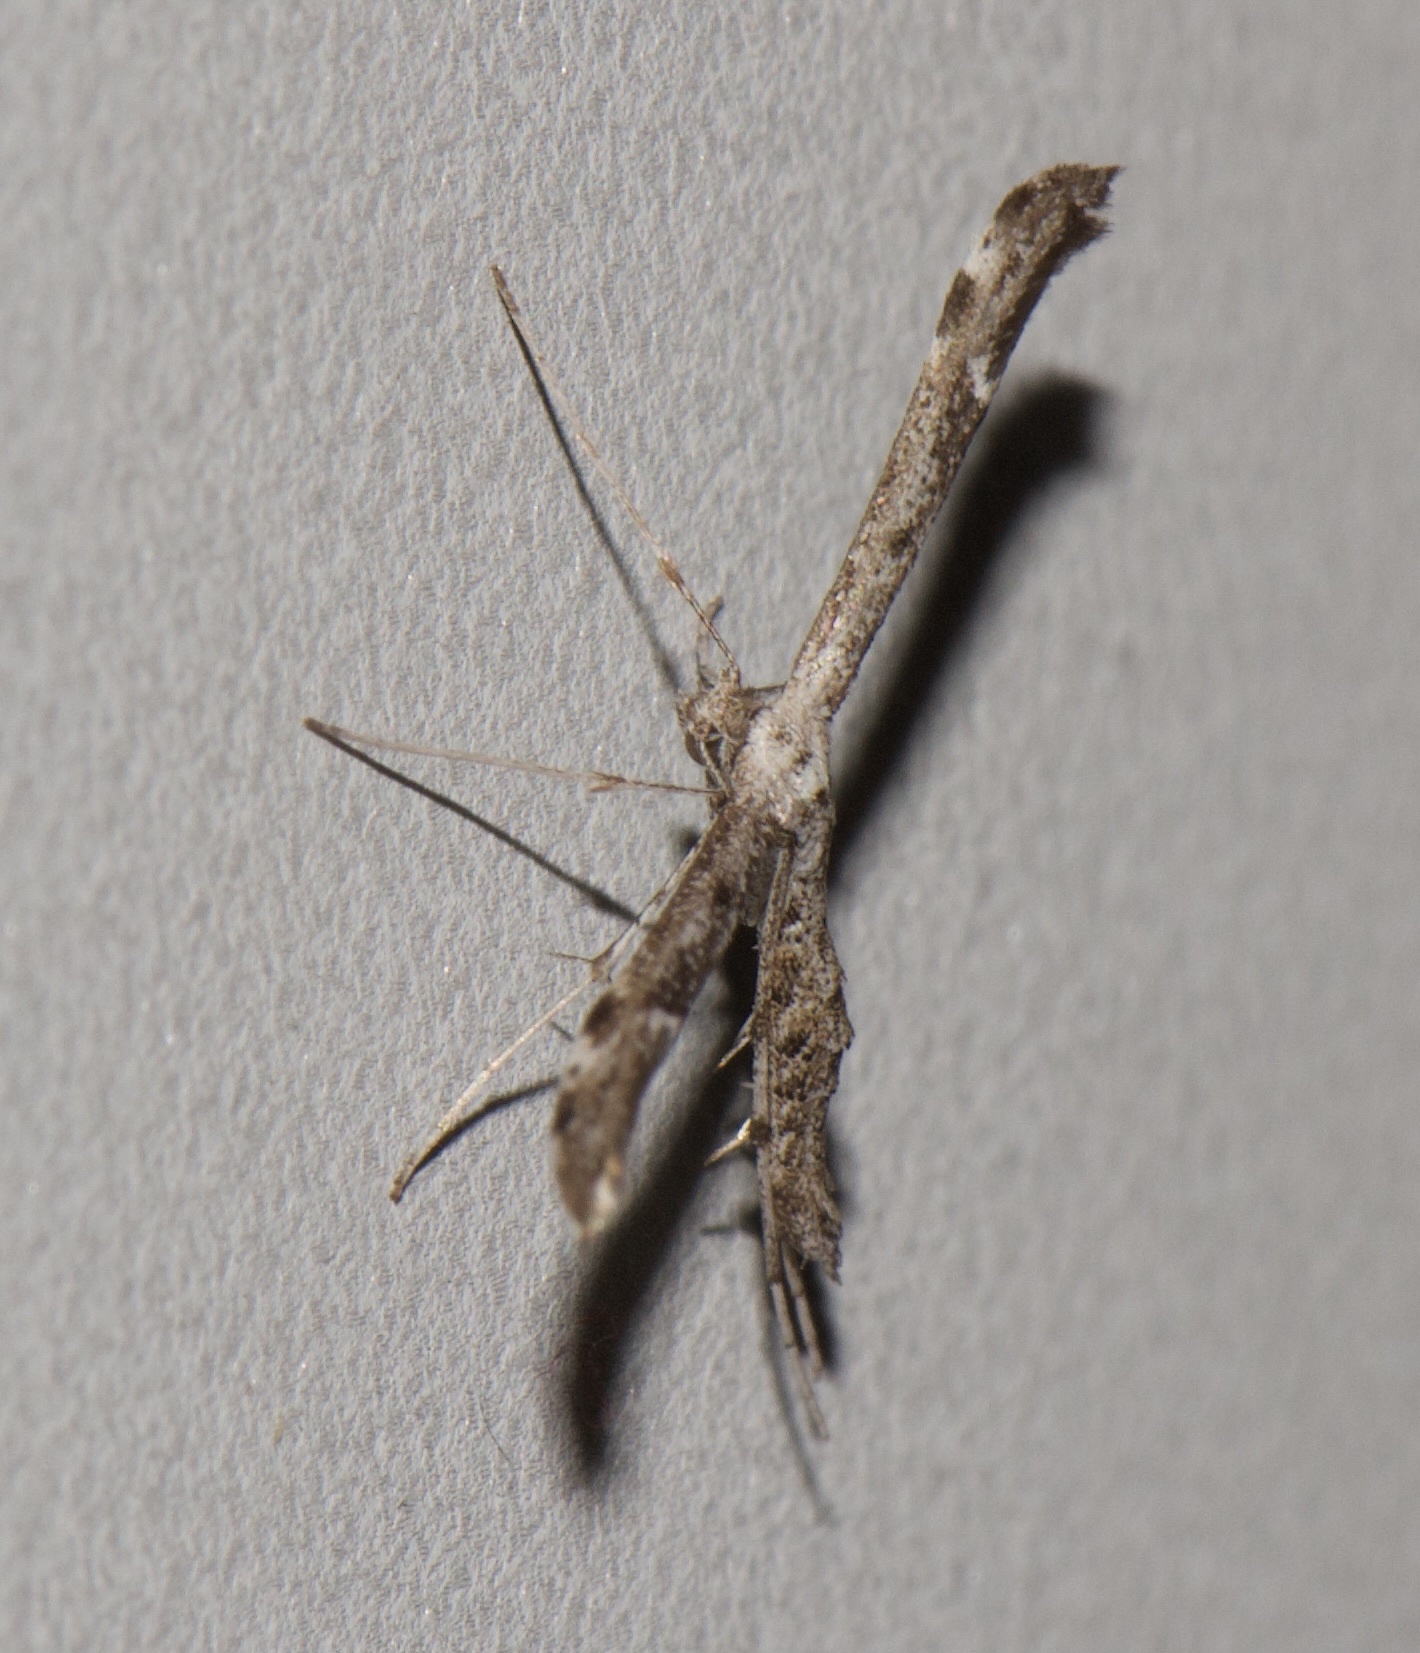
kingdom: Animalia
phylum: Arthropoda
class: Insecta
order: Lepidoptera
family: Pterophoridae
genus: Hellinsia
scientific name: Hellinsia inquinatus
